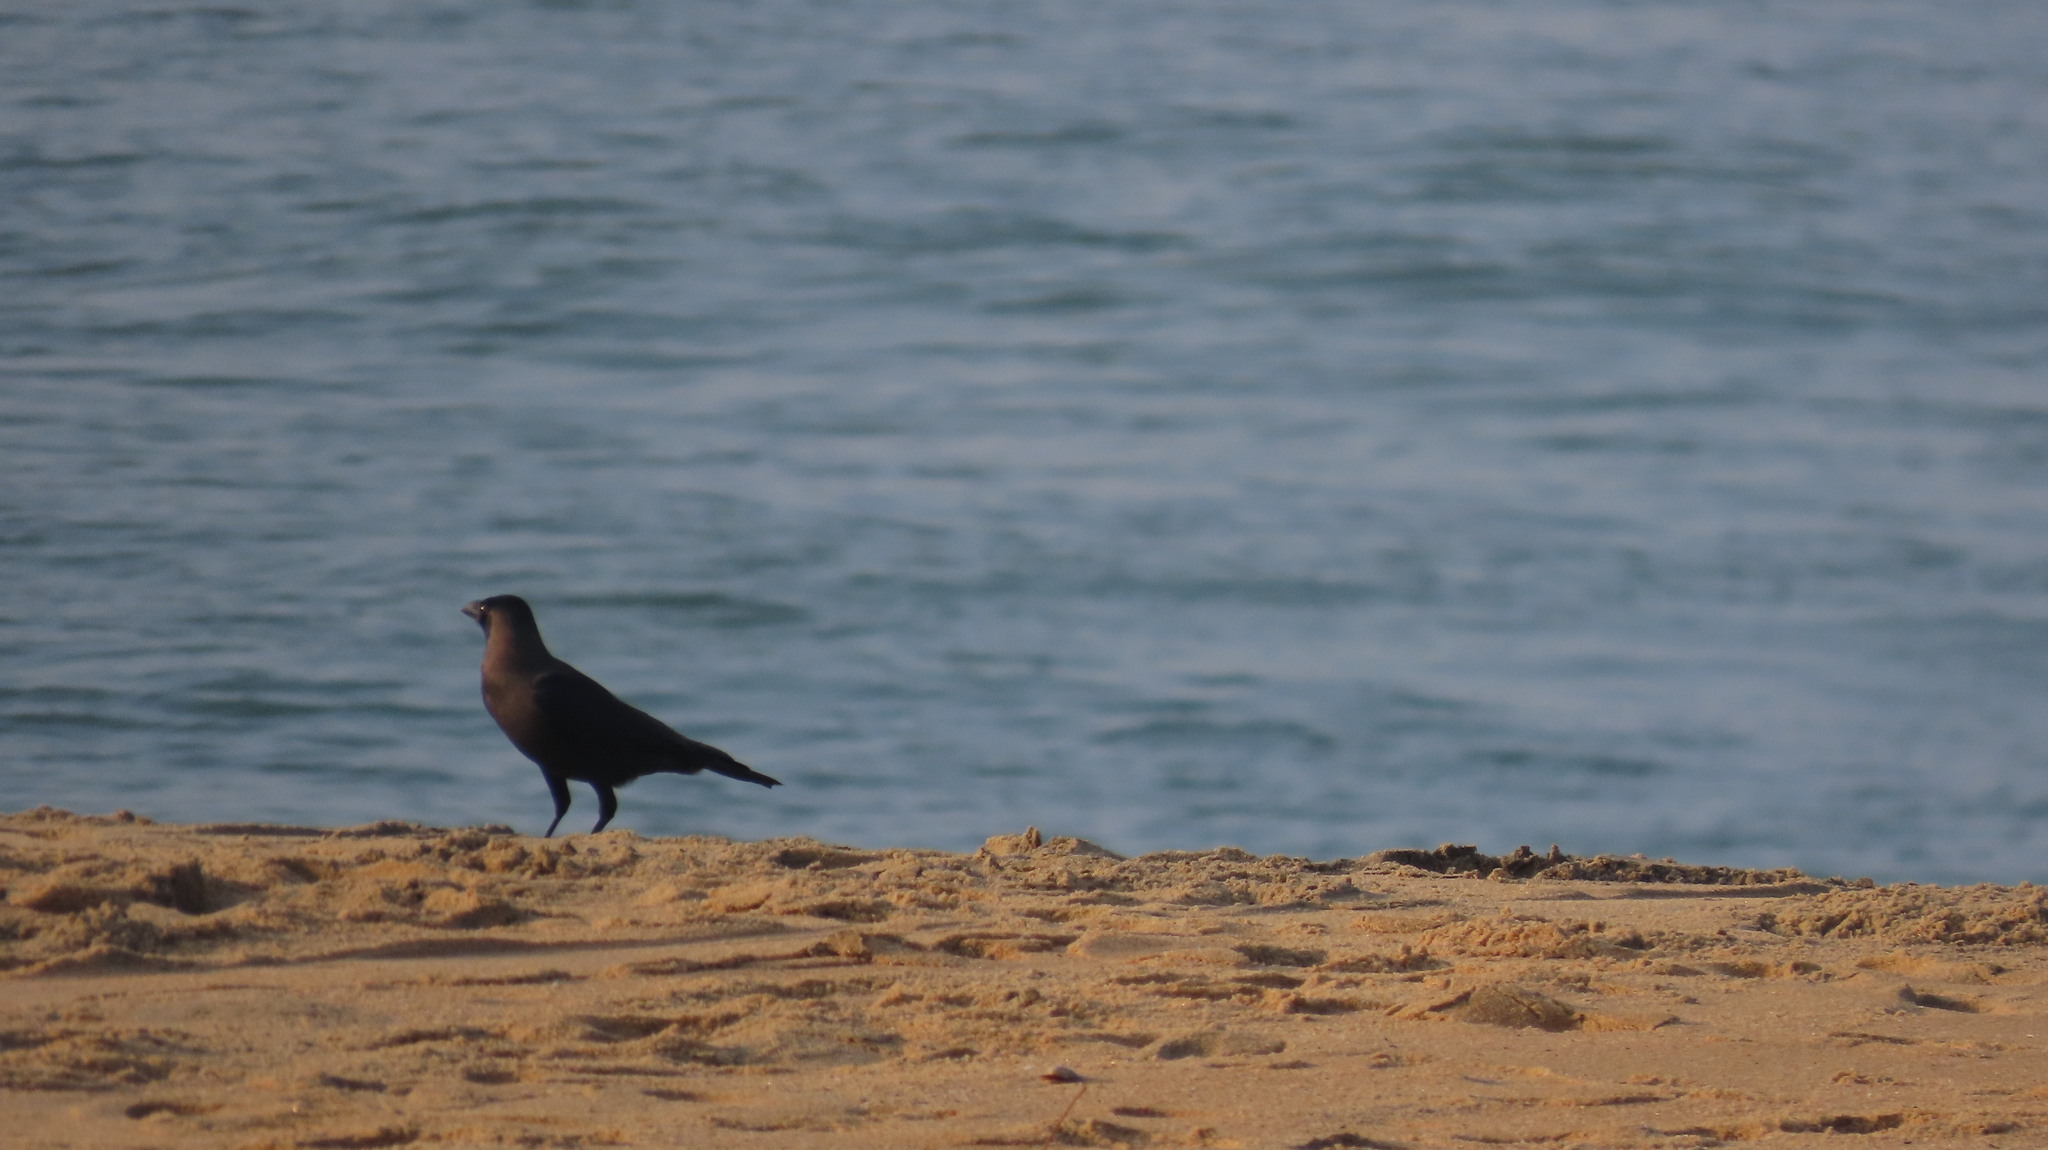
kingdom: Animalia
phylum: Chordata
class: Aves
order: Passeriformes
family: Corvidae
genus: Corvus
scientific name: Corvus splendens
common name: House crow
